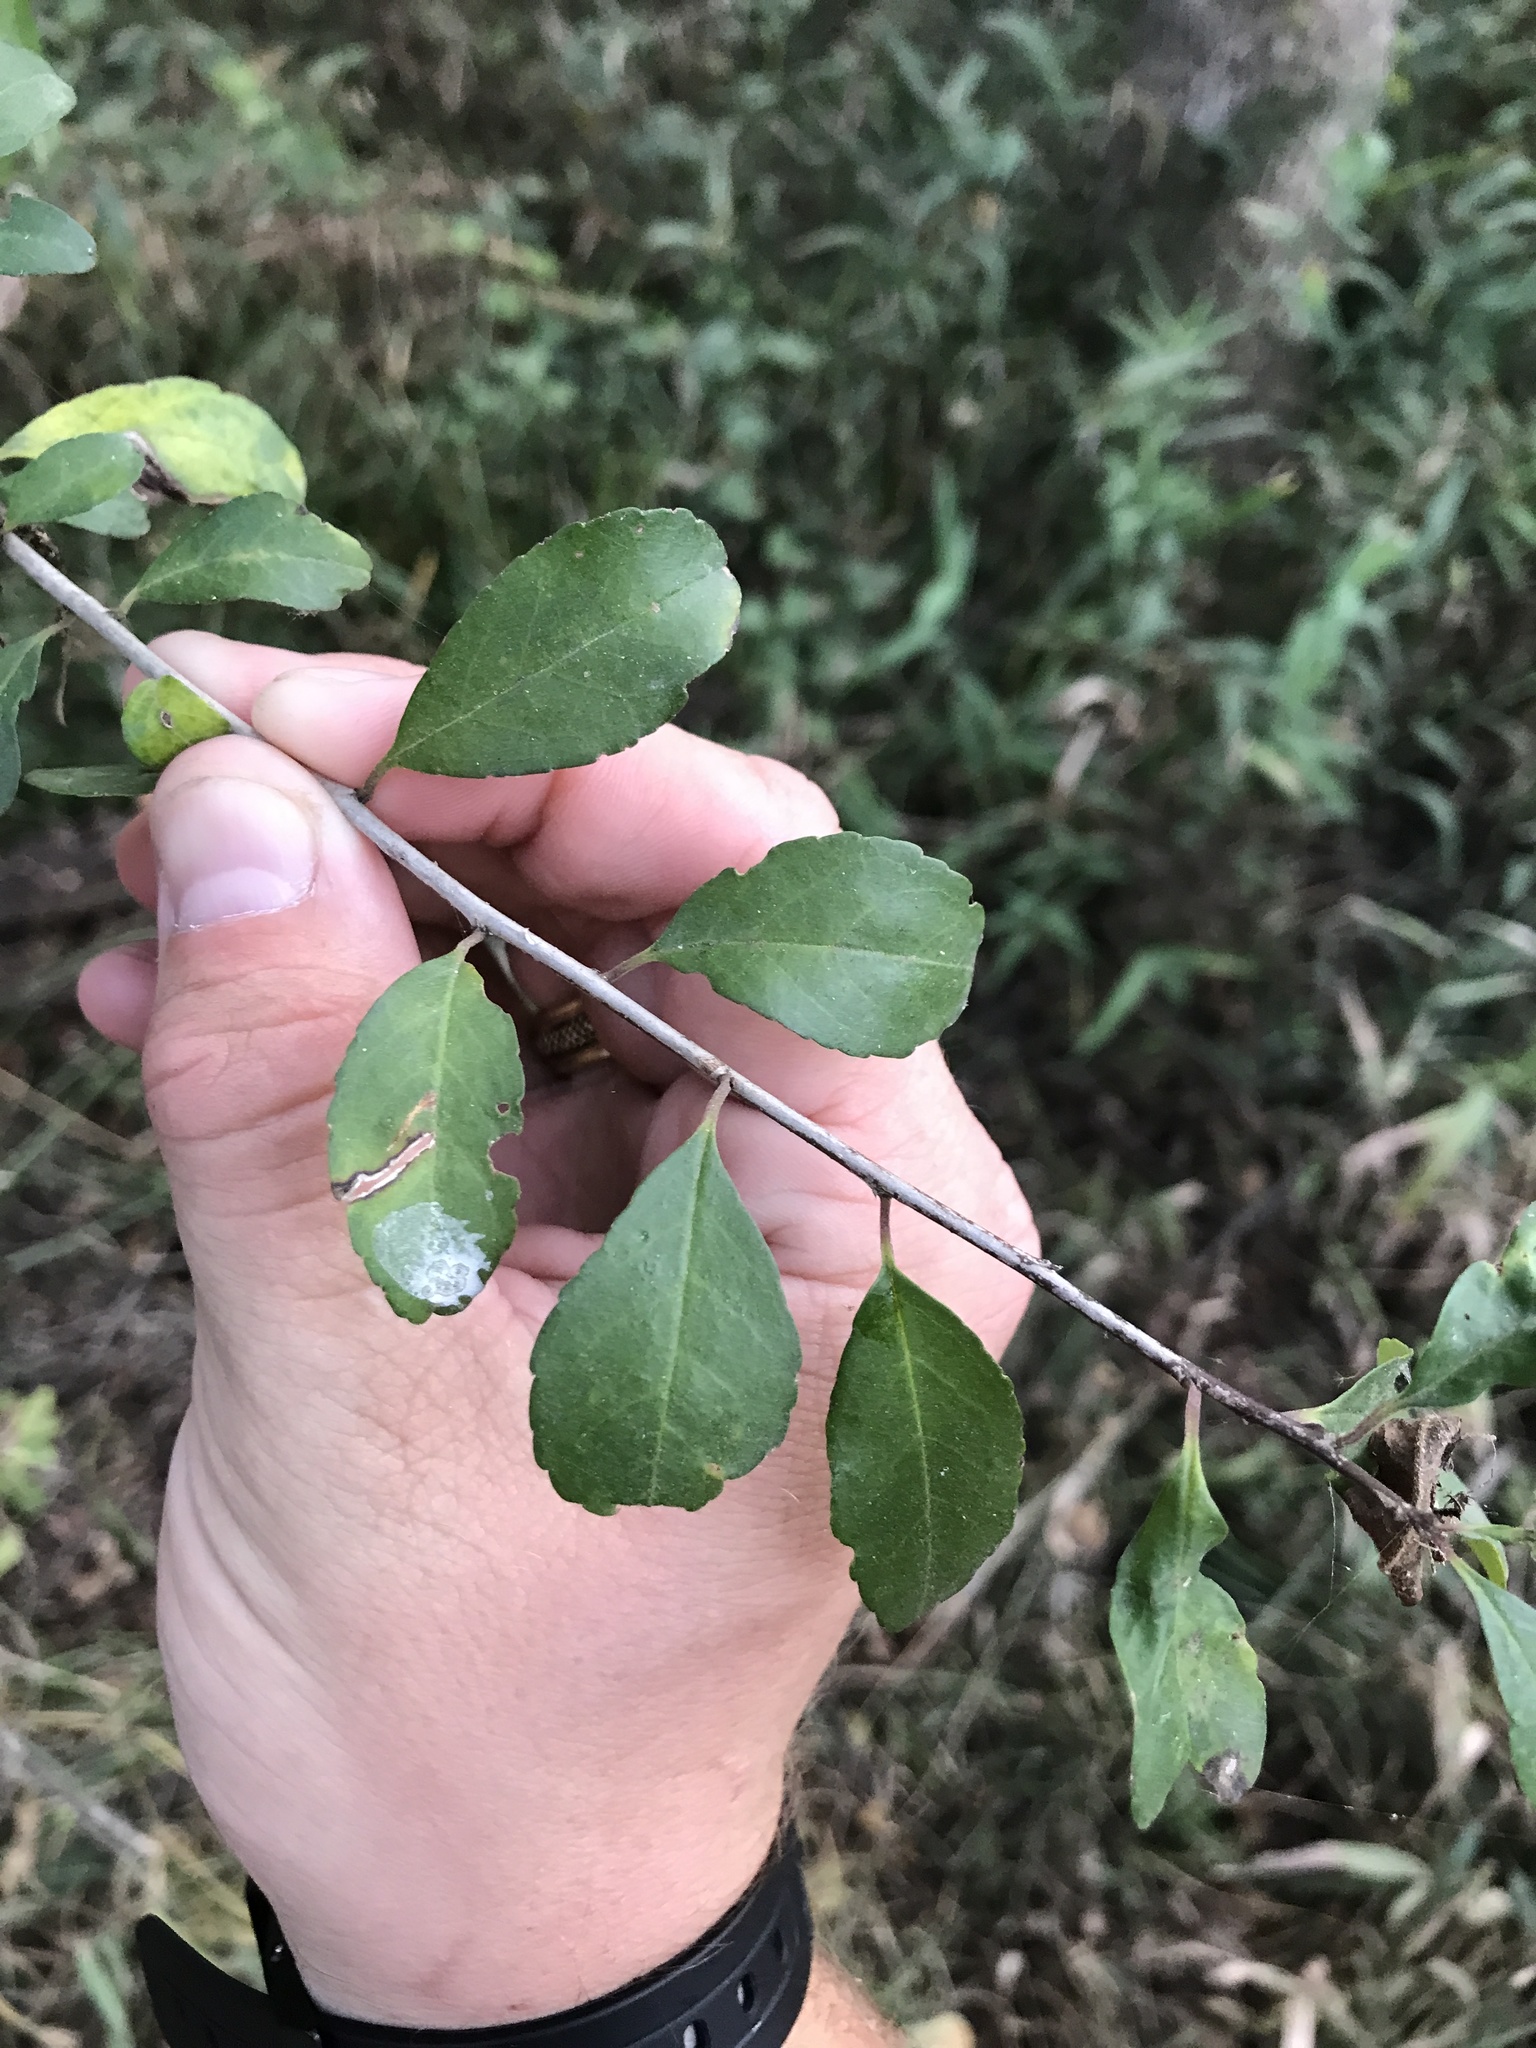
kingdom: Plantae
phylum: Tracheophyta
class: Magnoliopsida
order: Aquifoliales
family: Aquifoliaceae
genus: Ilex
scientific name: Ilex decidua
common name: Possum-haw
